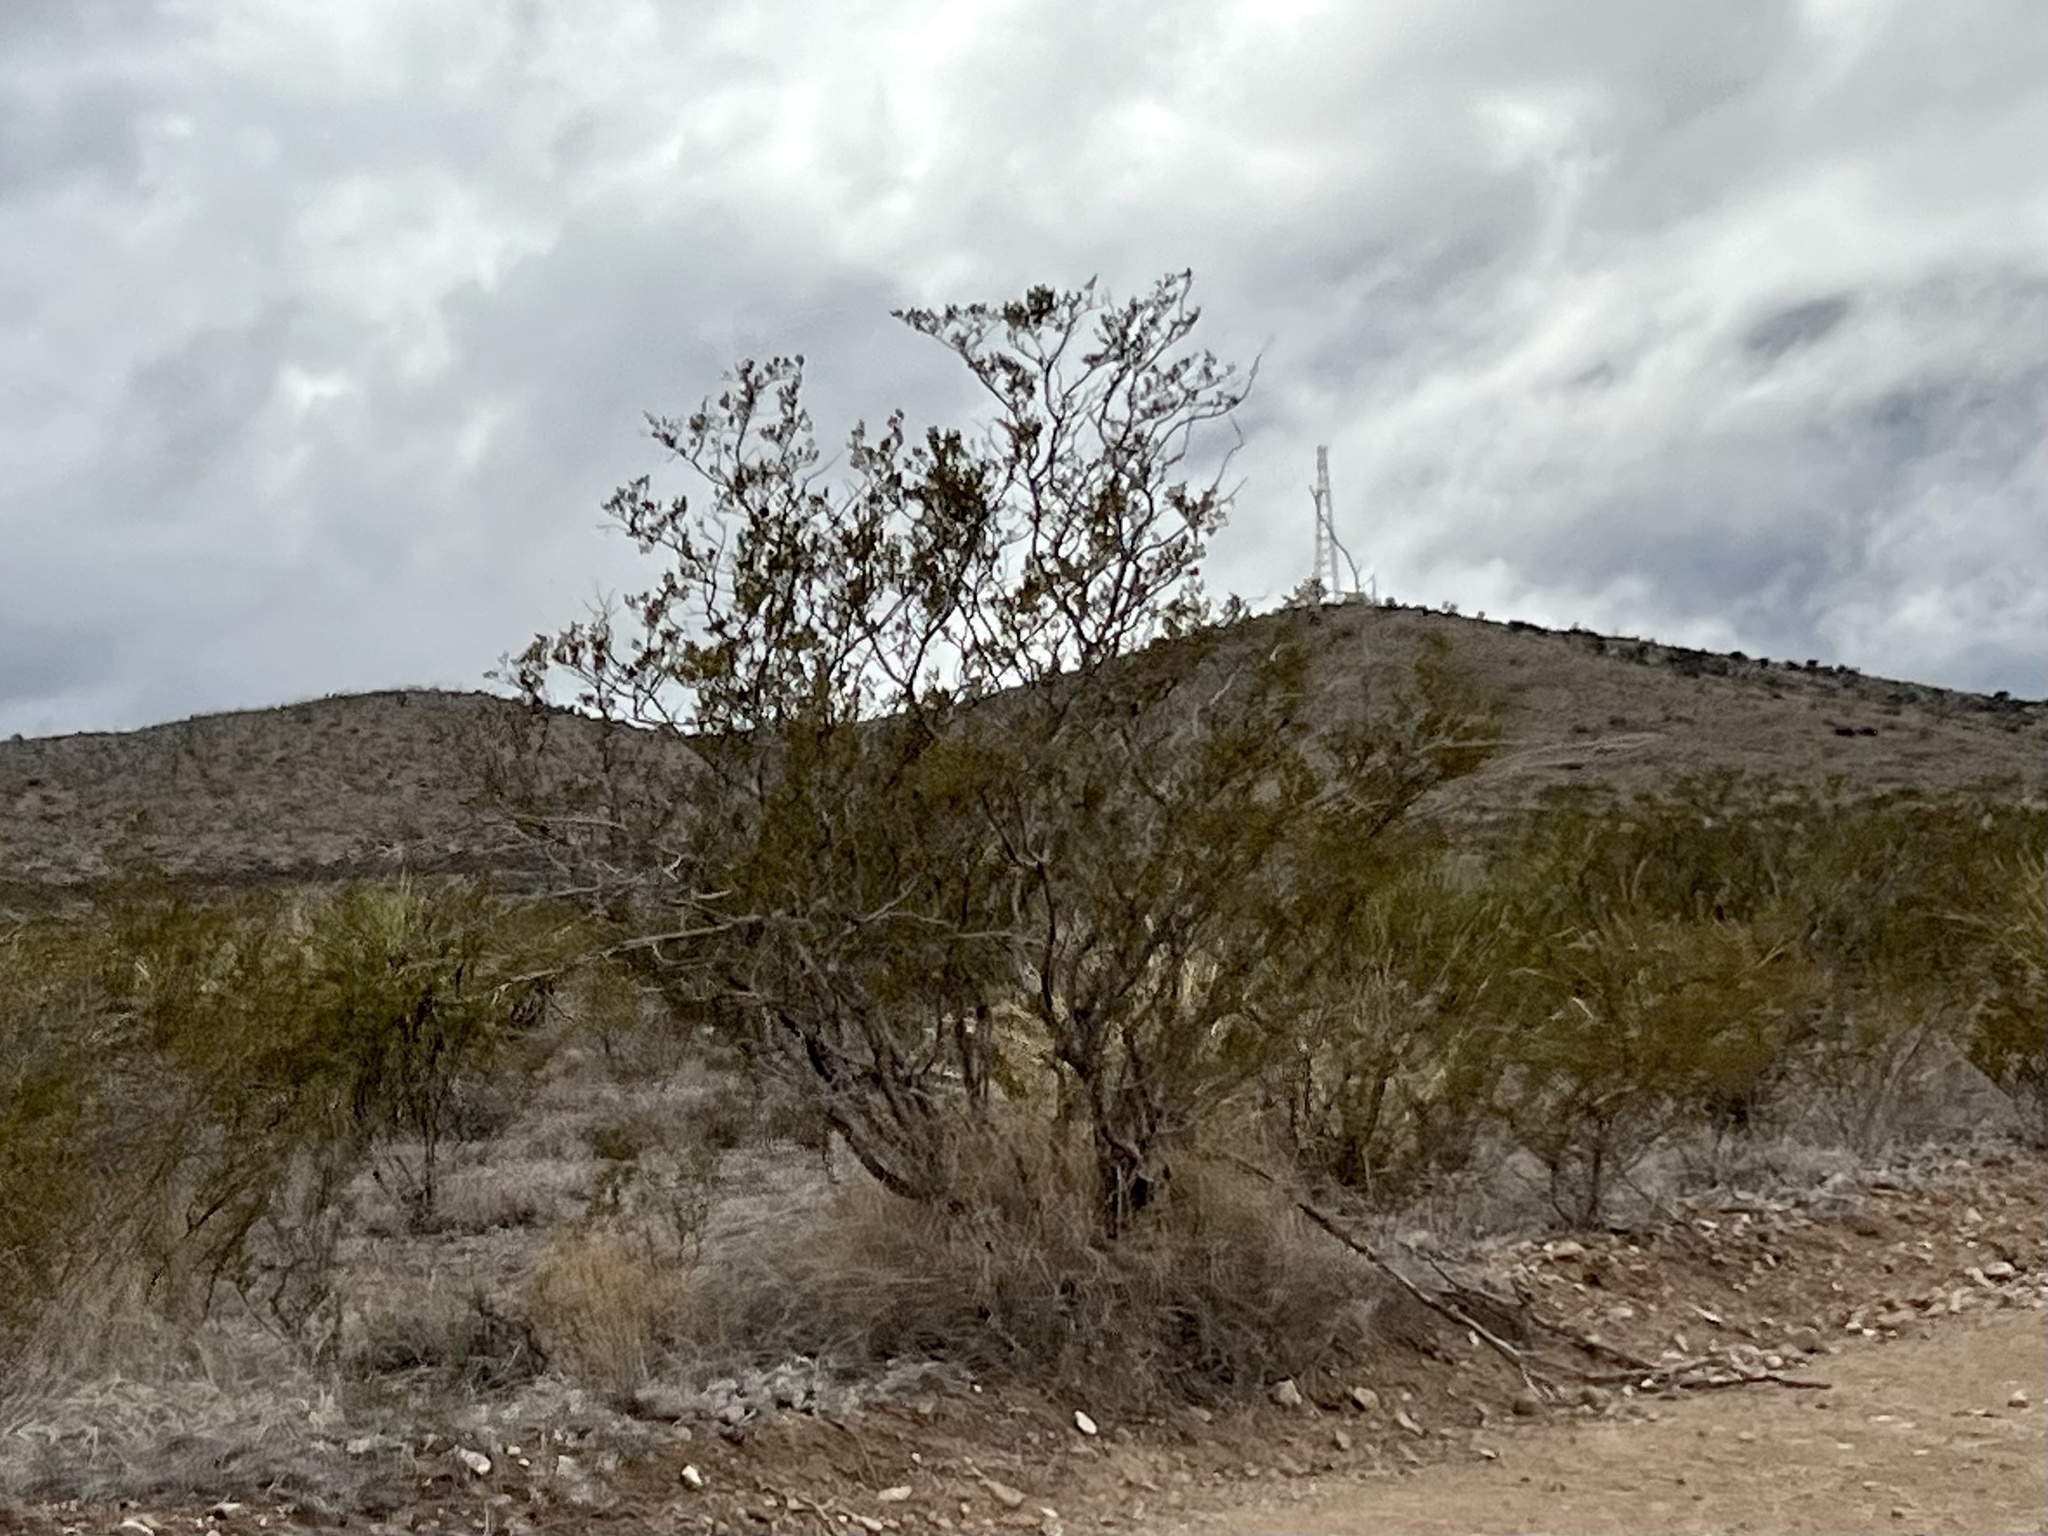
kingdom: Plantae
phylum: Tracheophyta
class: Magnoliopsida
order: Zygophyllales
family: Zygophyllaceae
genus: Larrea
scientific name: Larrea tridentata
